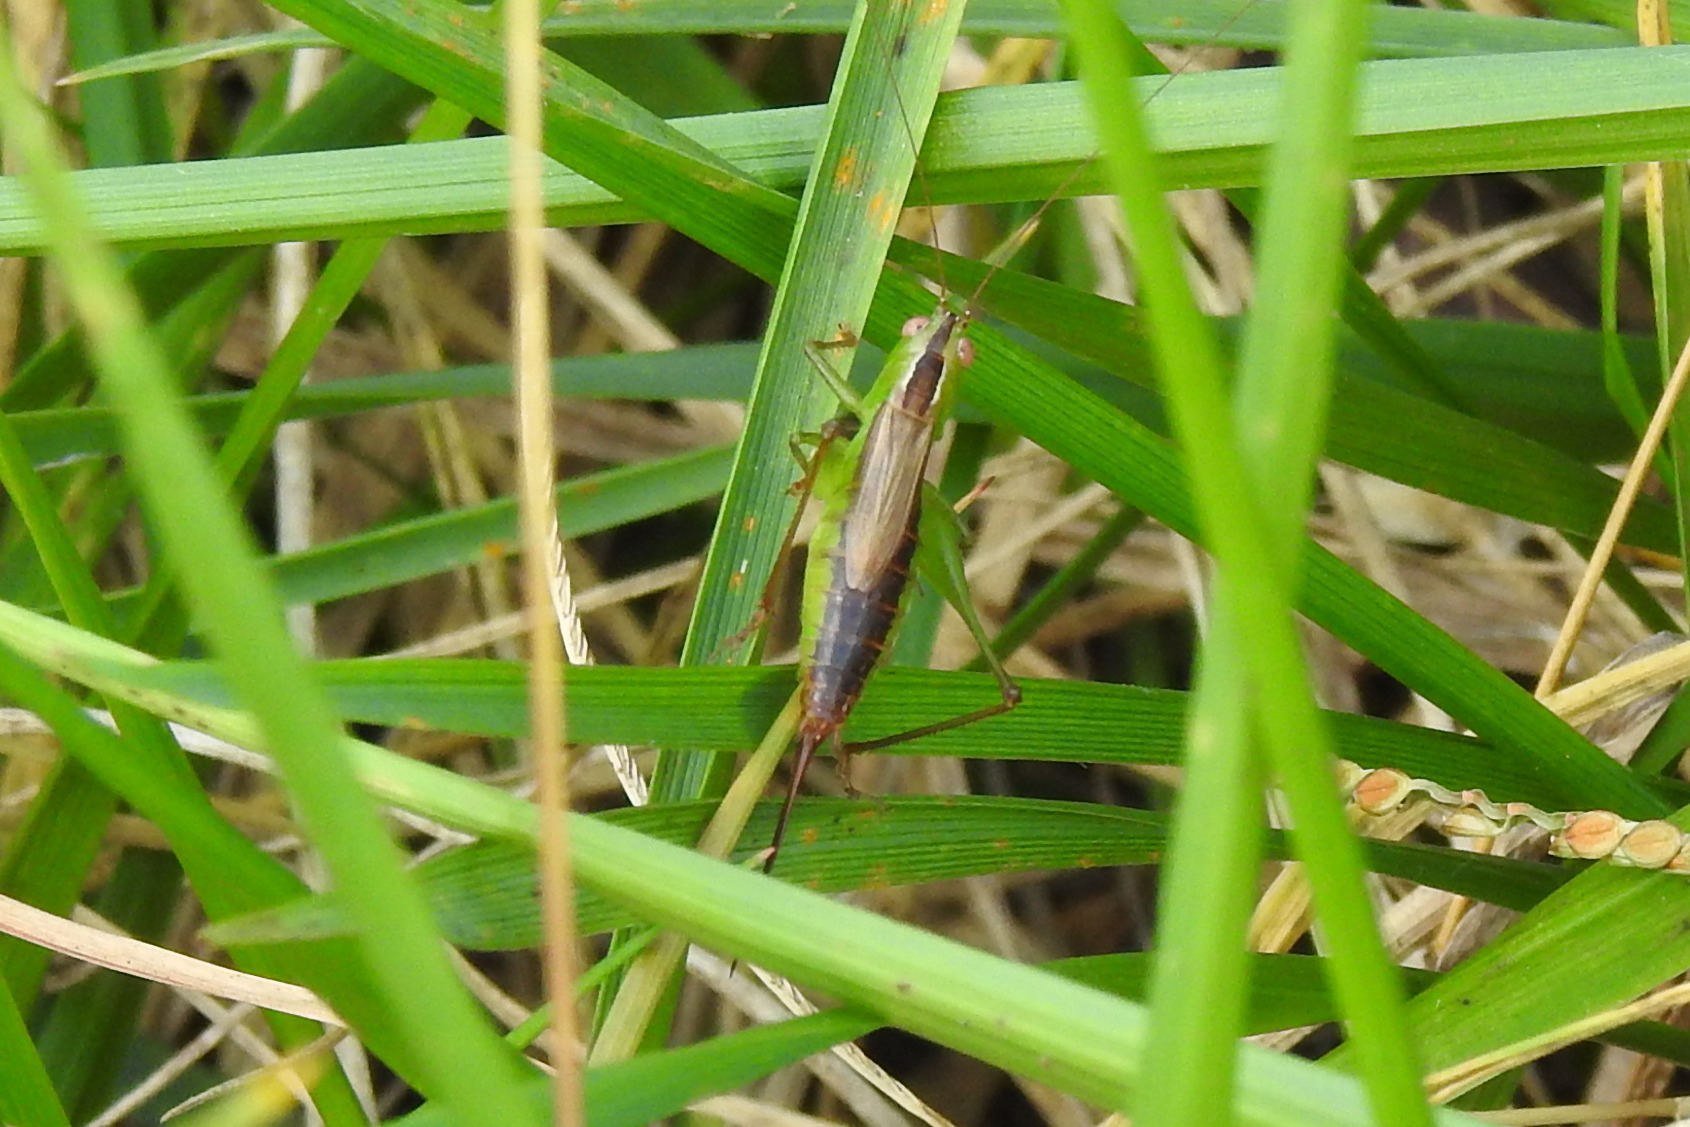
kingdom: Animalia
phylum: Arthropoda
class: Insecta
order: Orthoptera
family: Tettigoniidae
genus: Conocephalus
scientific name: Conocephalus brevipennis
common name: Short-winged meadow katydid
